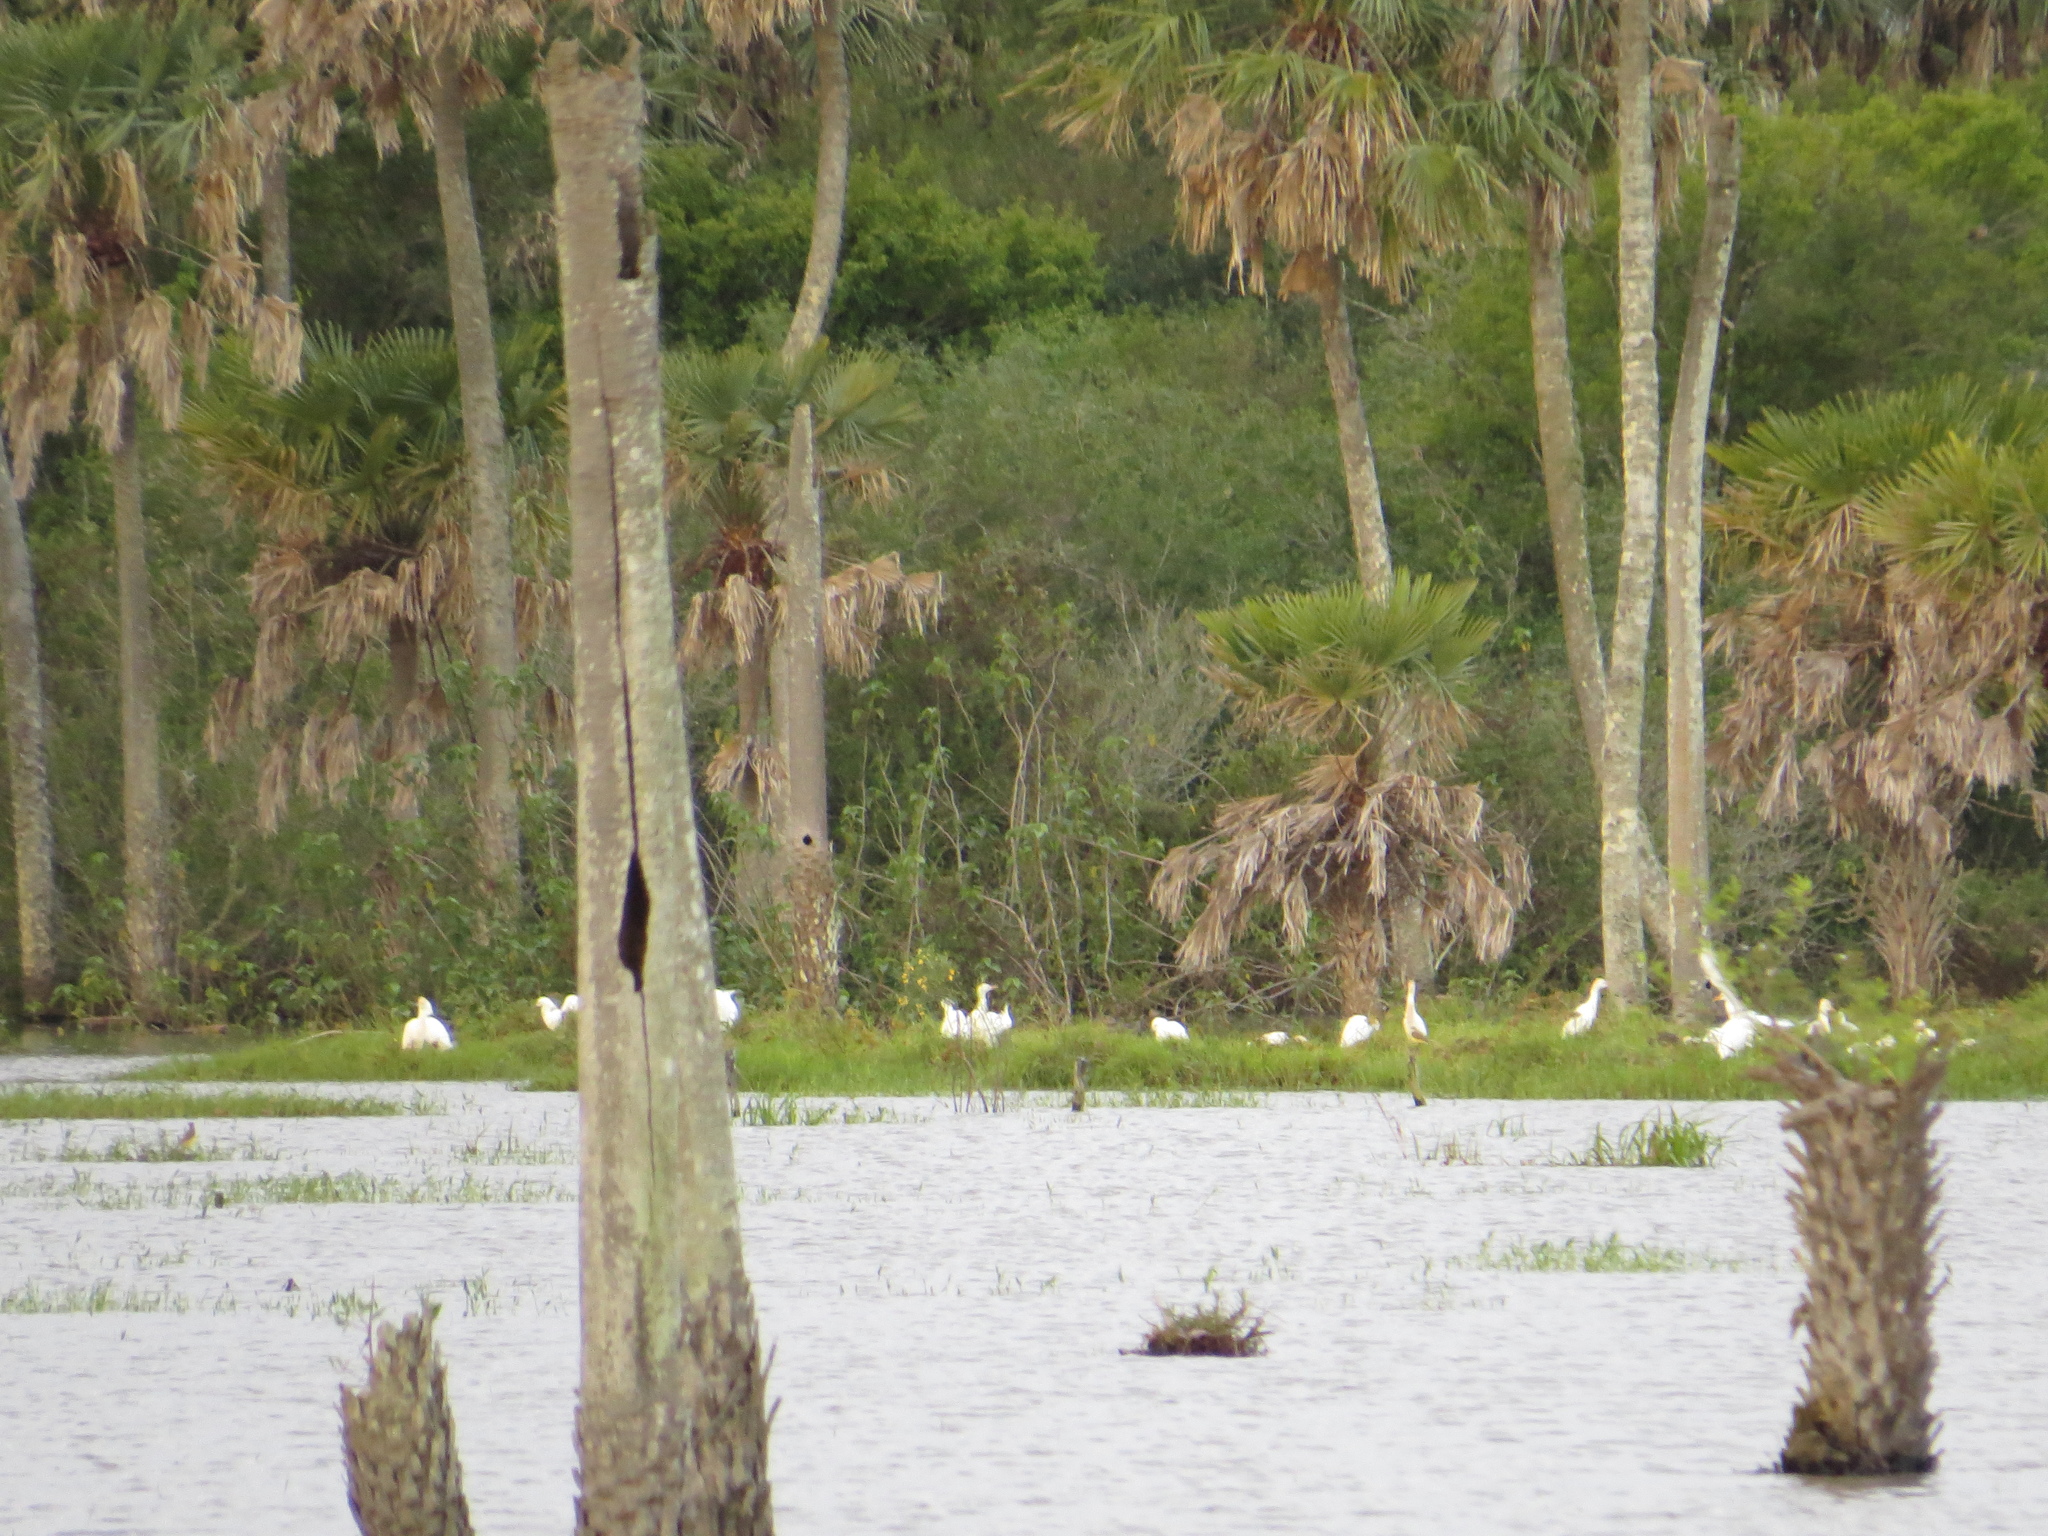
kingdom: Animalia
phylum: Chordata
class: Aves
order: Pelecaniformes
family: Ardeidae
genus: Bubulcus
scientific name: Bubulcus ibis
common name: Cattle egret
